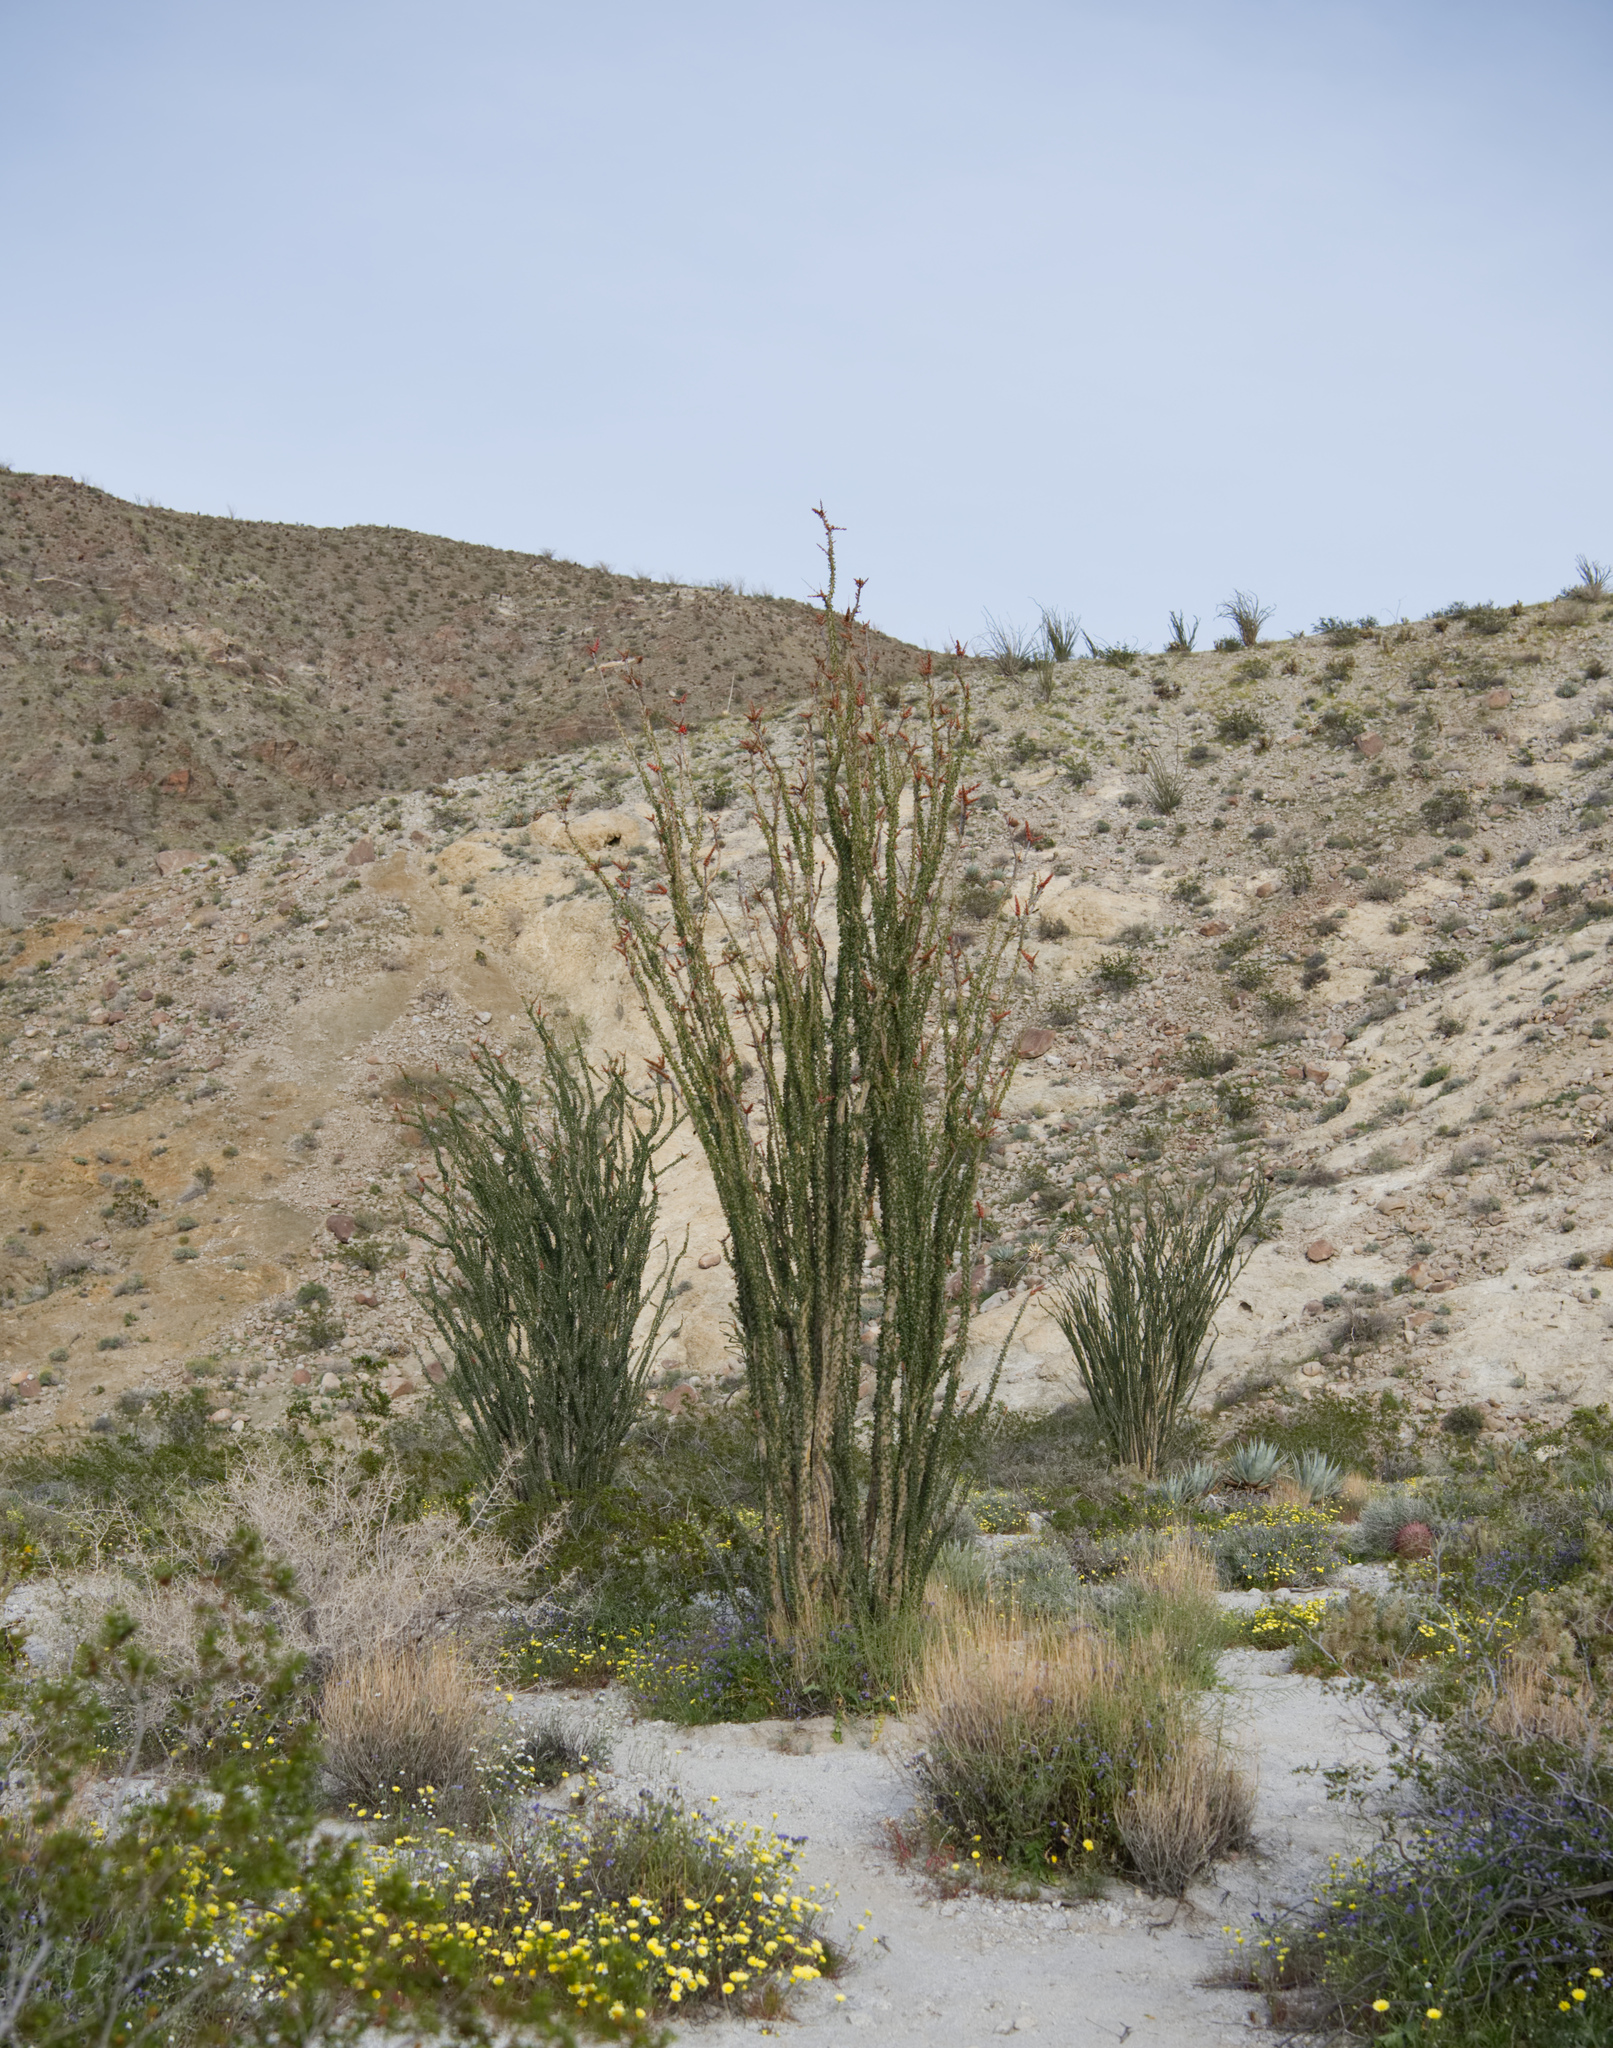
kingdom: Plantae
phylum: Tracheophyta
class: Magnoliopsida
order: Ericales
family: Fouquieriaceae
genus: Fouquieria
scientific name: Fouquieria splendens
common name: Vine-cactus
